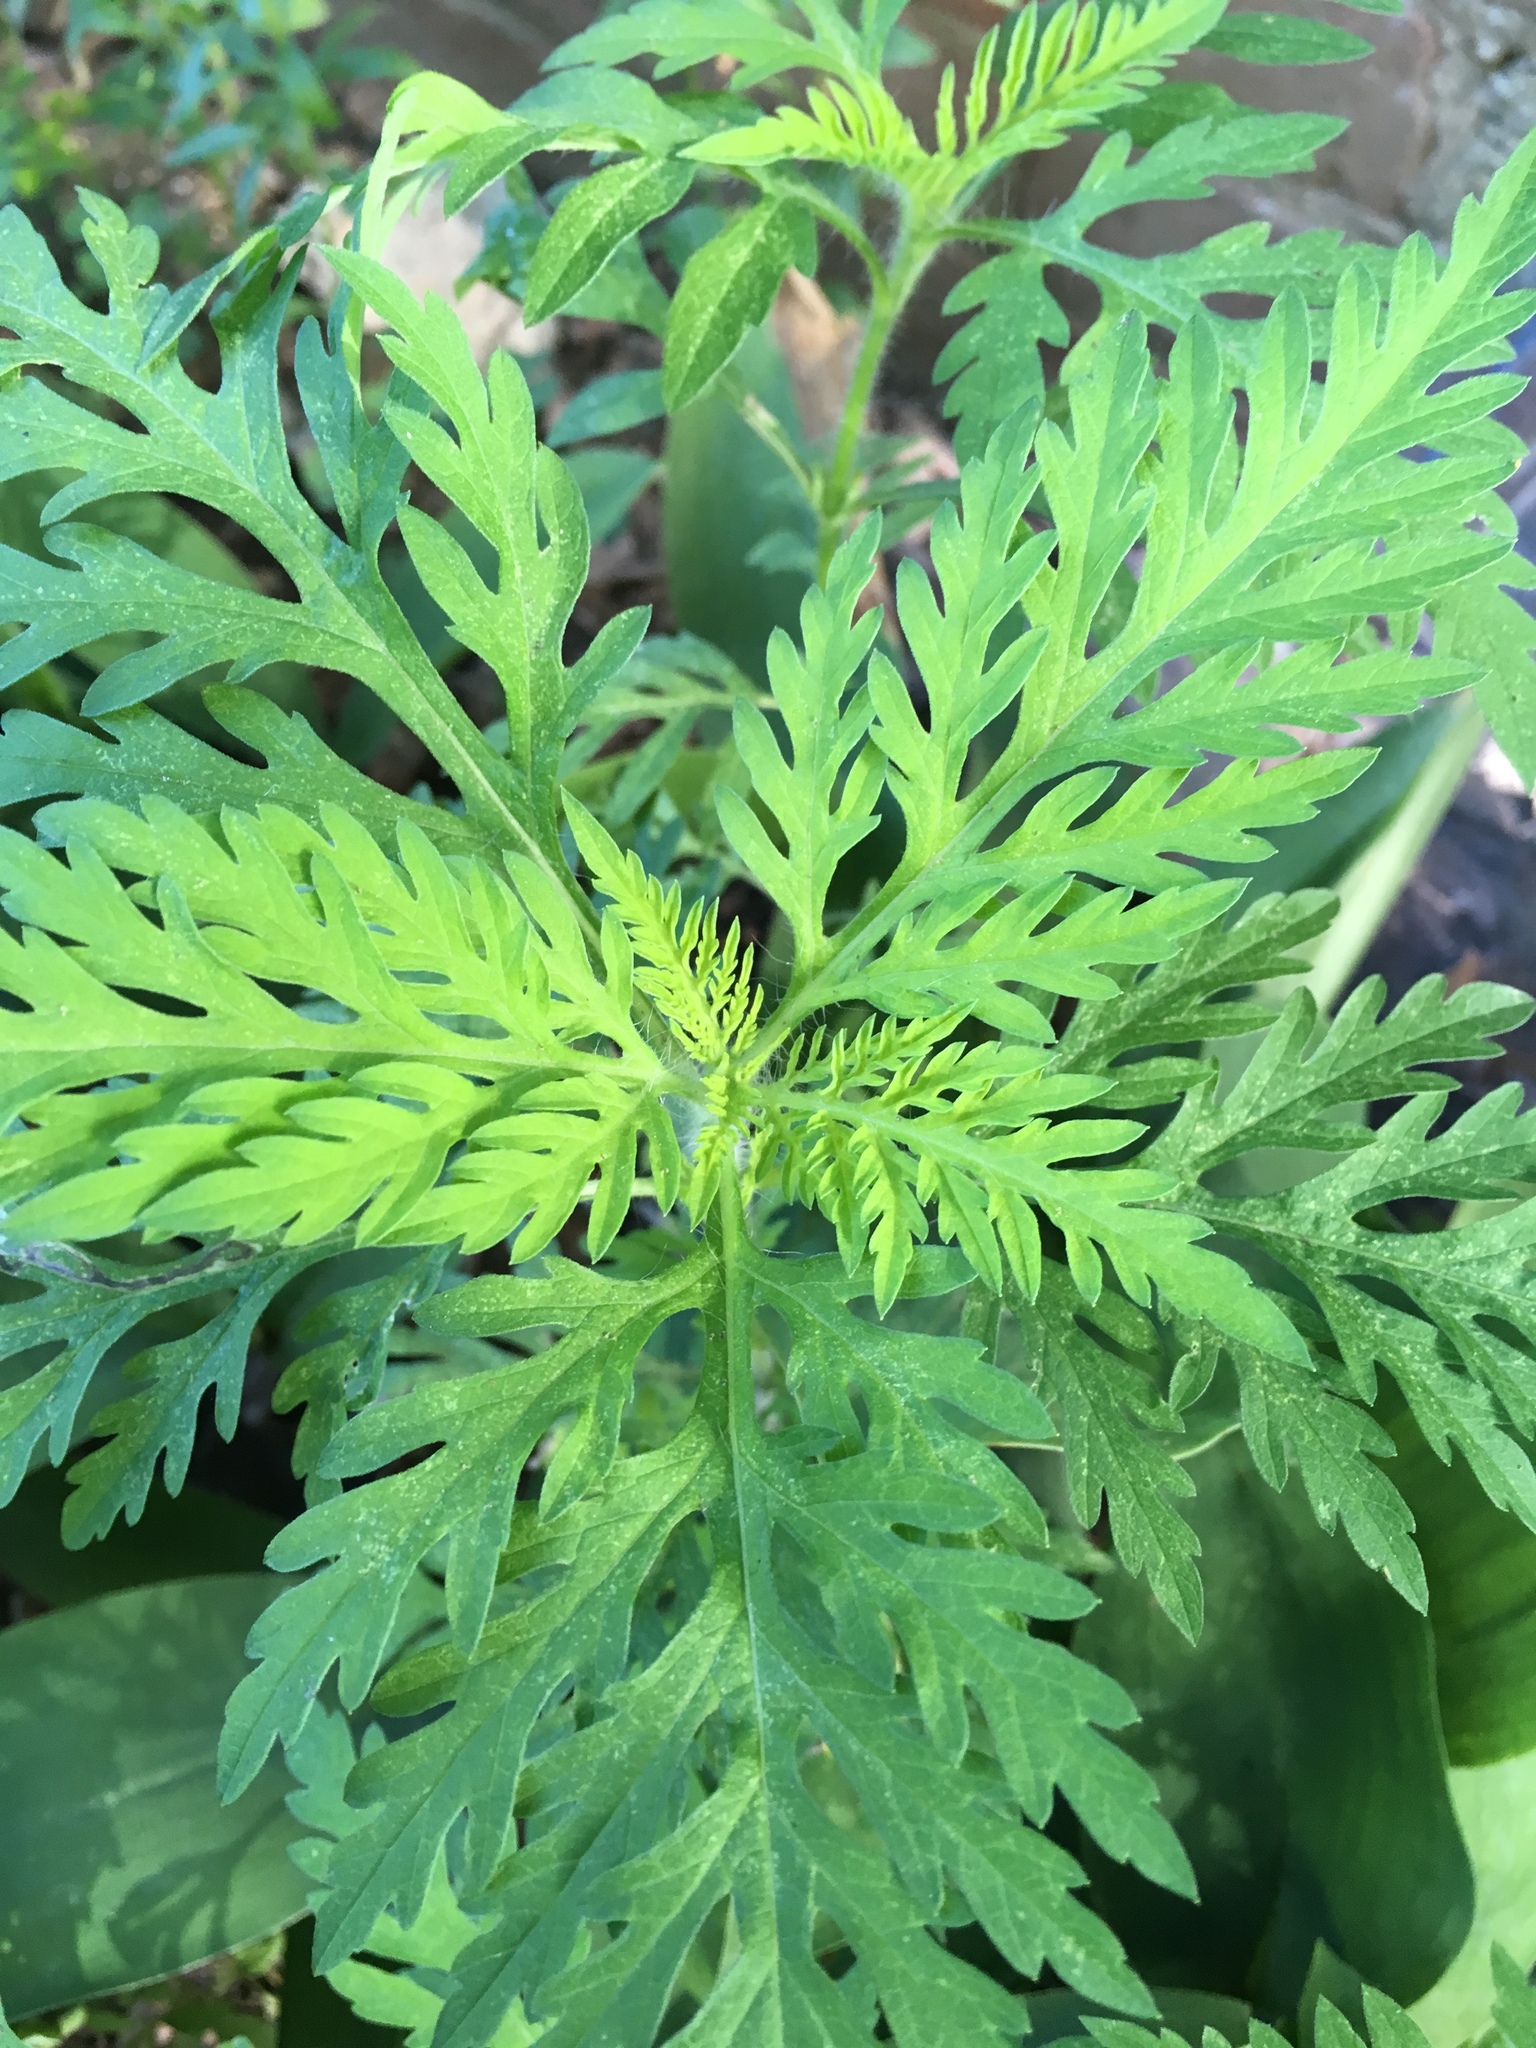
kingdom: Plantae
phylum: Tracheophyta
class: Magnoliopsida
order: Asterales
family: Asteraceae
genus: Ambrosia
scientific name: Ambrosia artemisiifolia
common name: Annual ragweed
